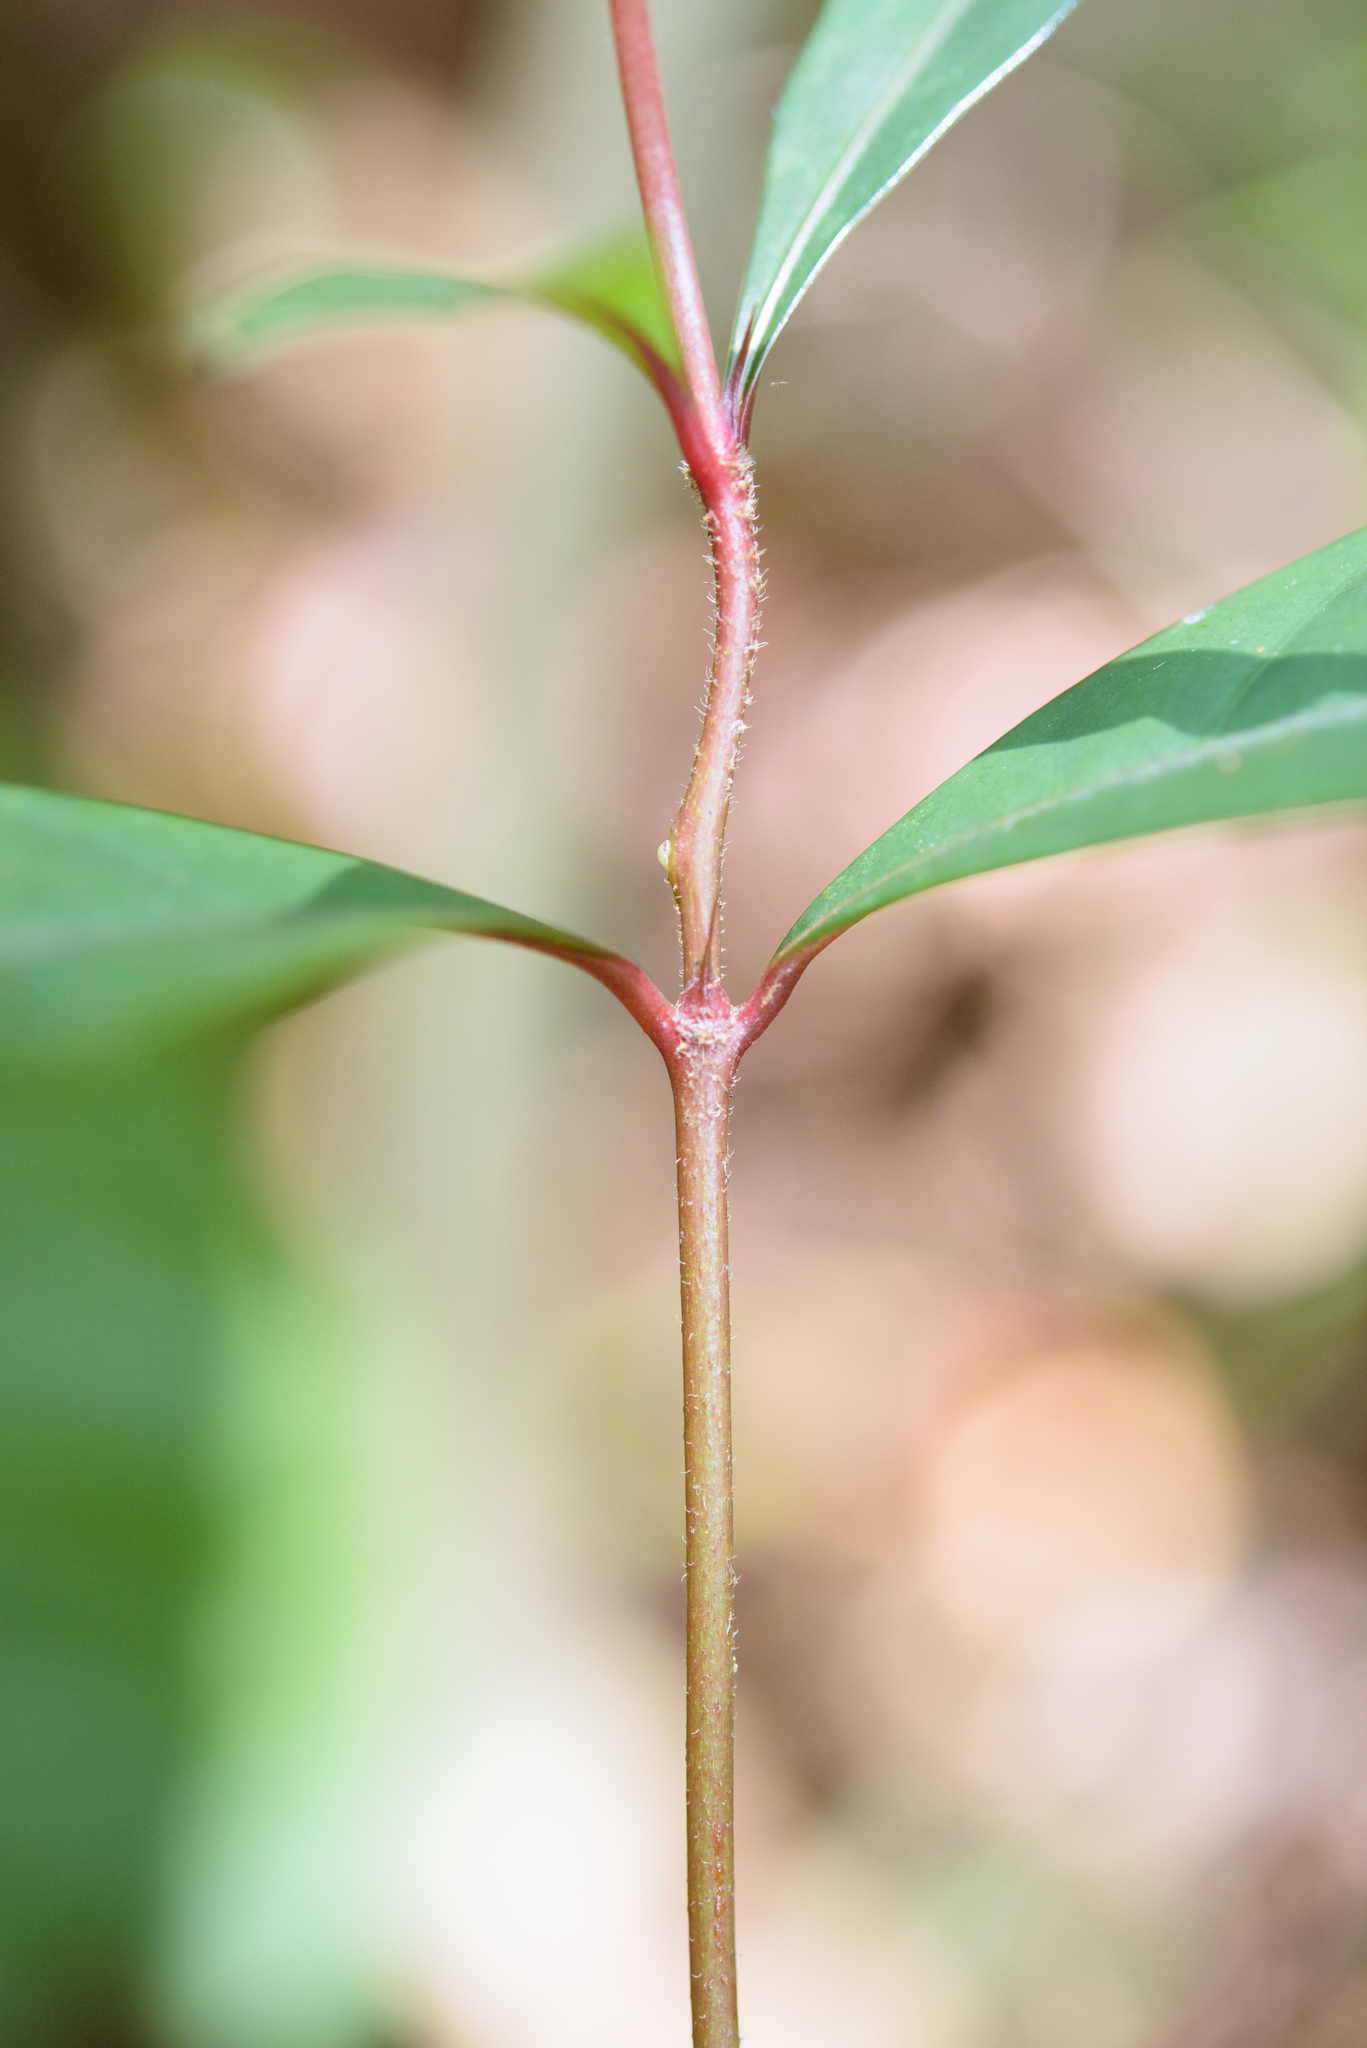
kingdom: Plantae
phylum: Tracheophyta
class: Magnoliopsida
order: Gentianales
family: Rubiaceae
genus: Aidia
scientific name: Aidia cochinchinensis
